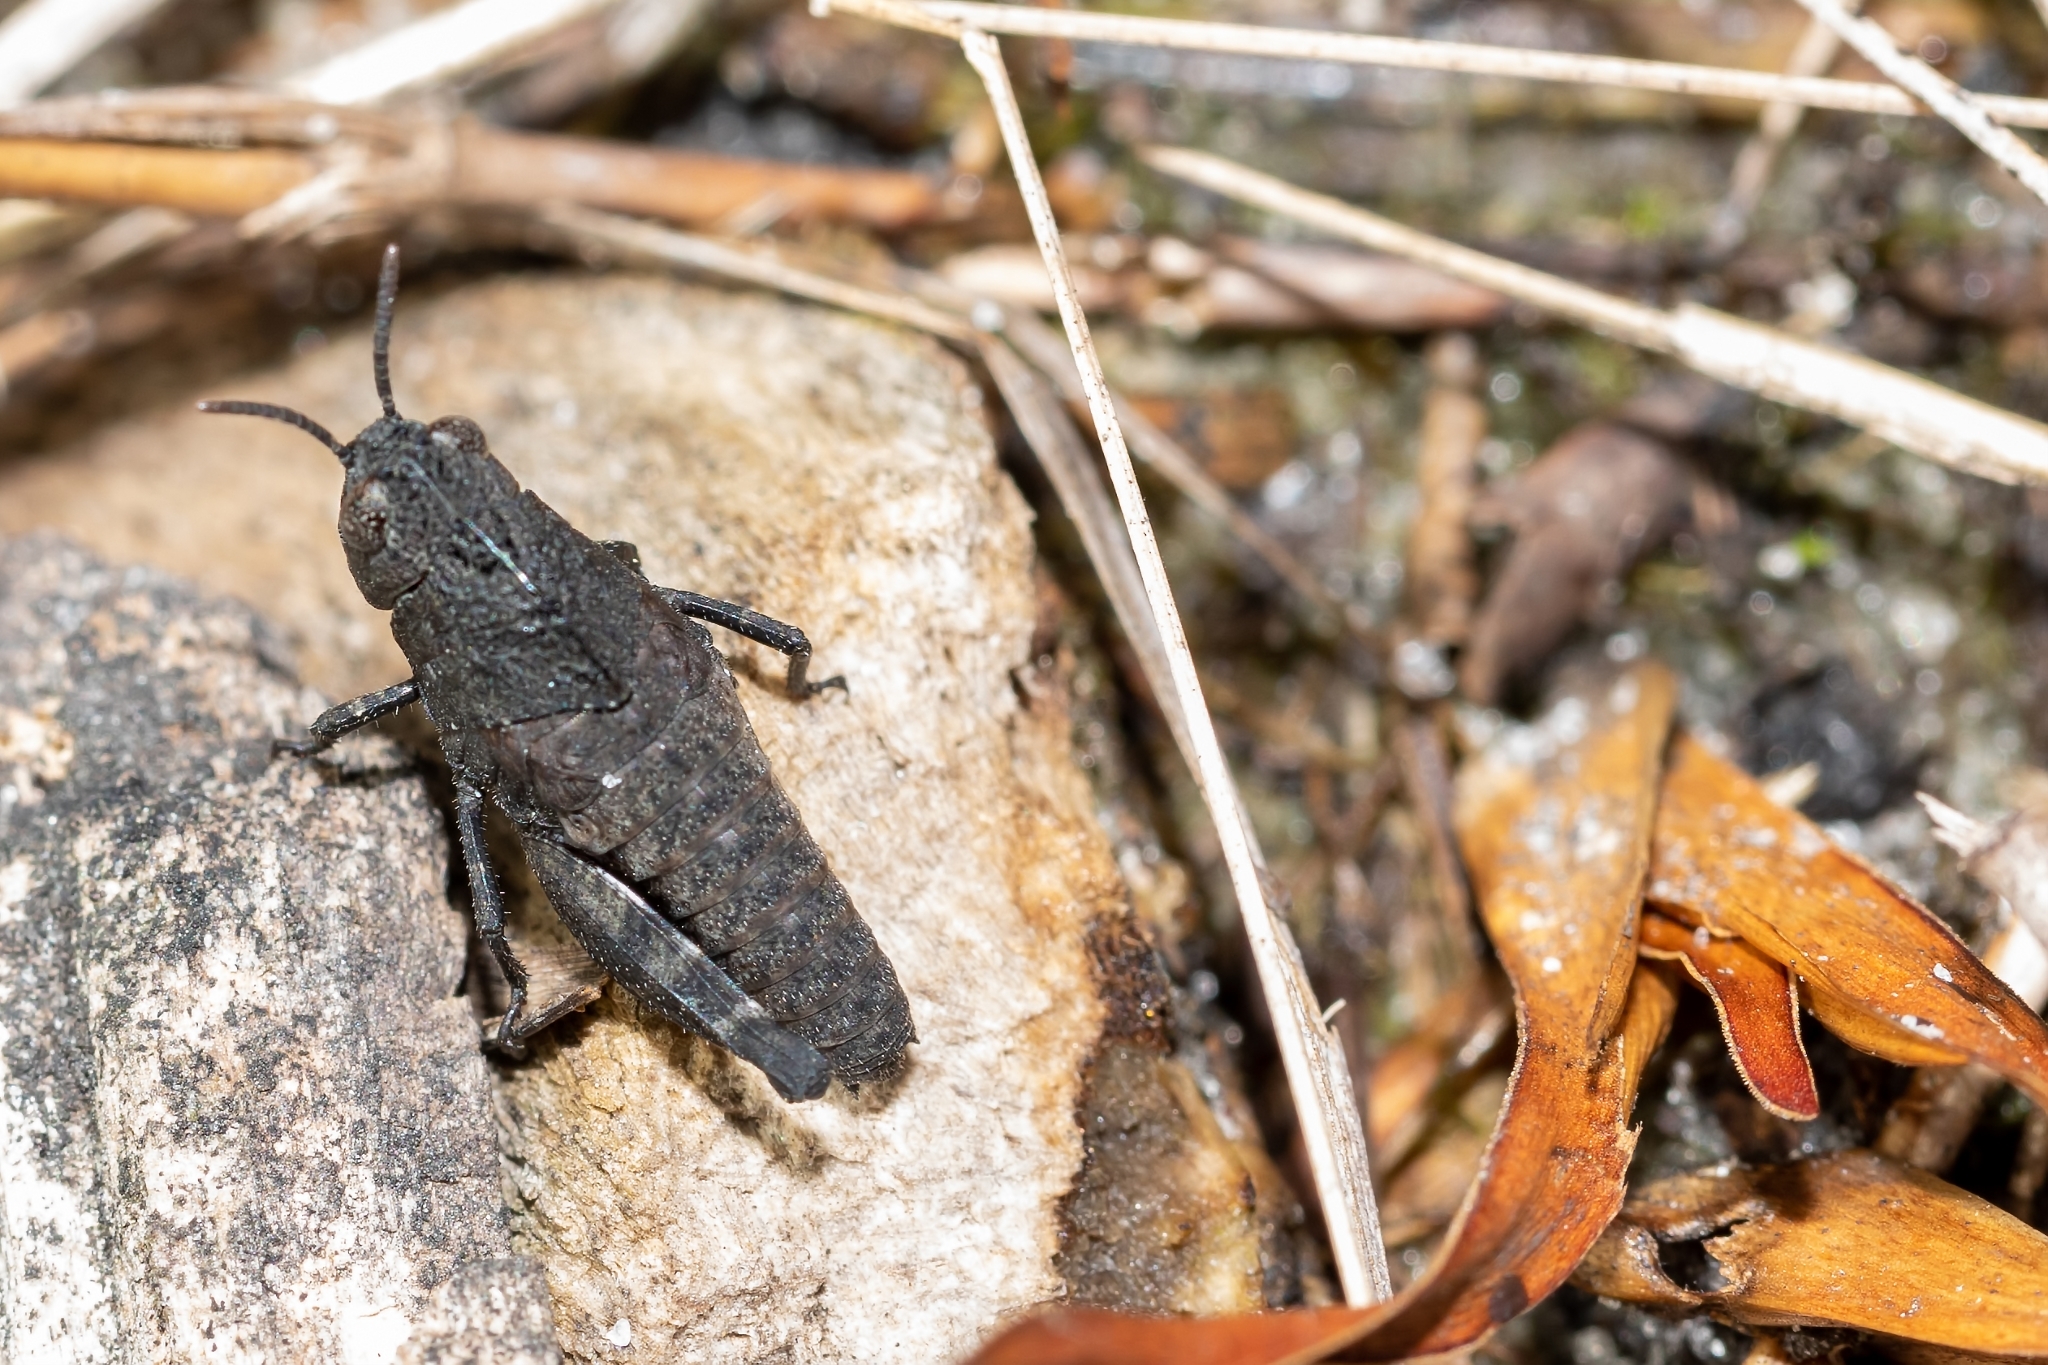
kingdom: Animalia
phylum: Arthropoda
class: Insecta
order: Orthoptera
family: Acrididae
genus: Arphia
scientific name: Arphia granulata
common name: Southern yellow-winged grasshopper
